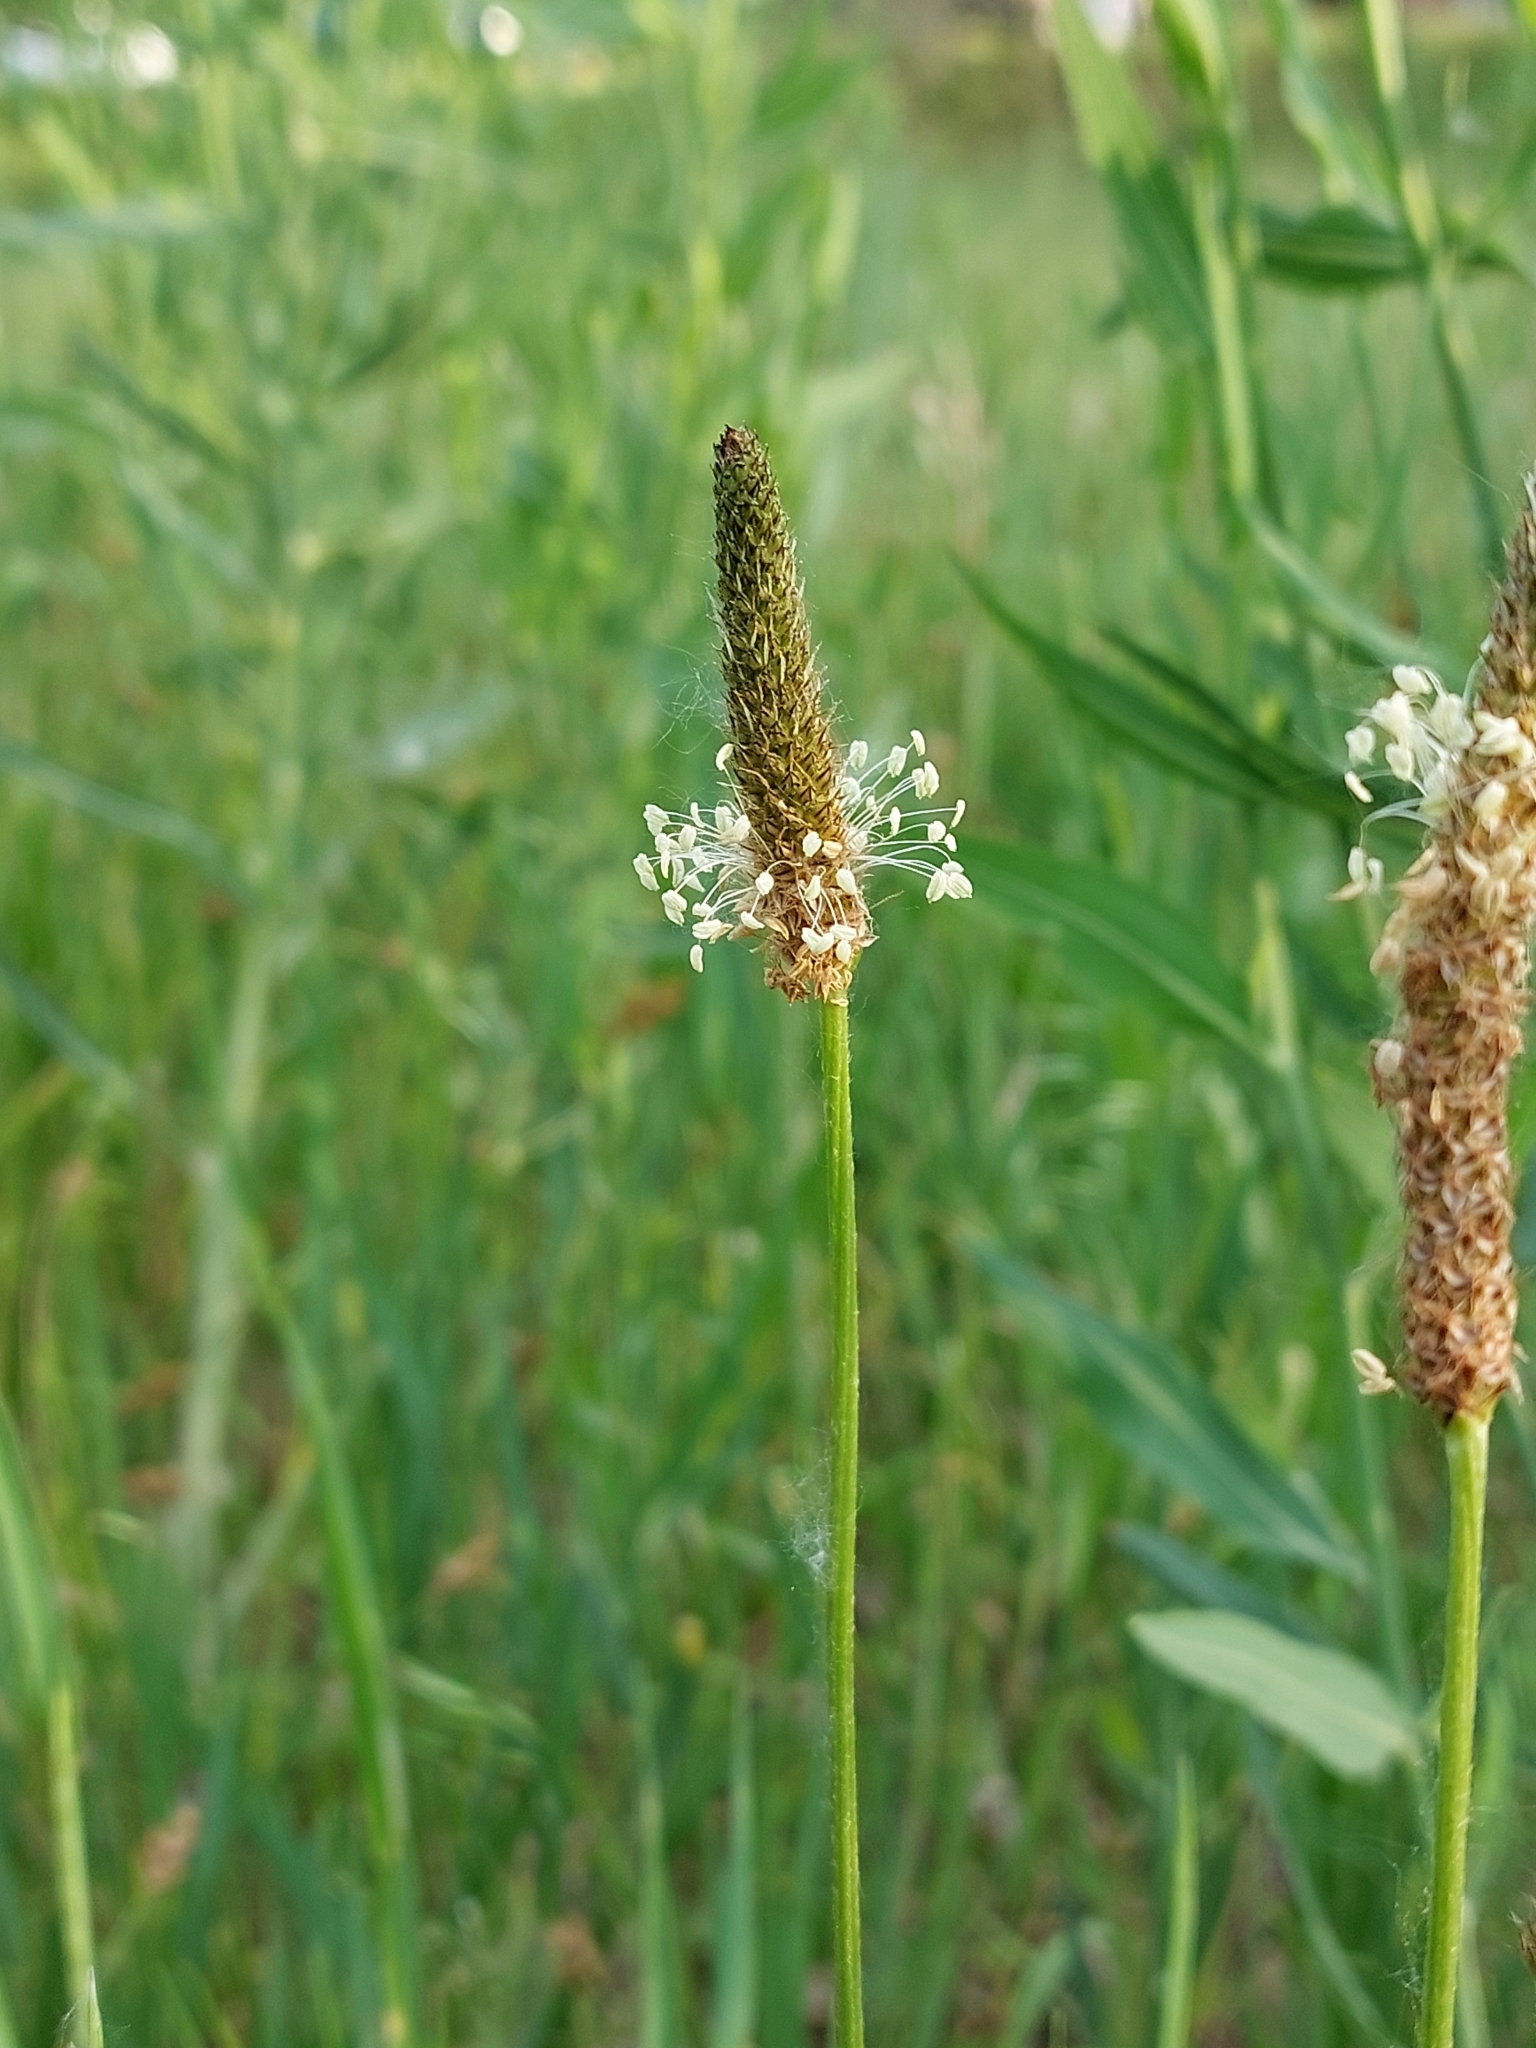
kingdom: Plantae
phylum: Tracheophyta
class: Magnoliopsida
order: Lamiales
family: Plantaginaceae
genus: Plantago
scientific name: Plantago lanceolata
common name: Ribwort plantain
